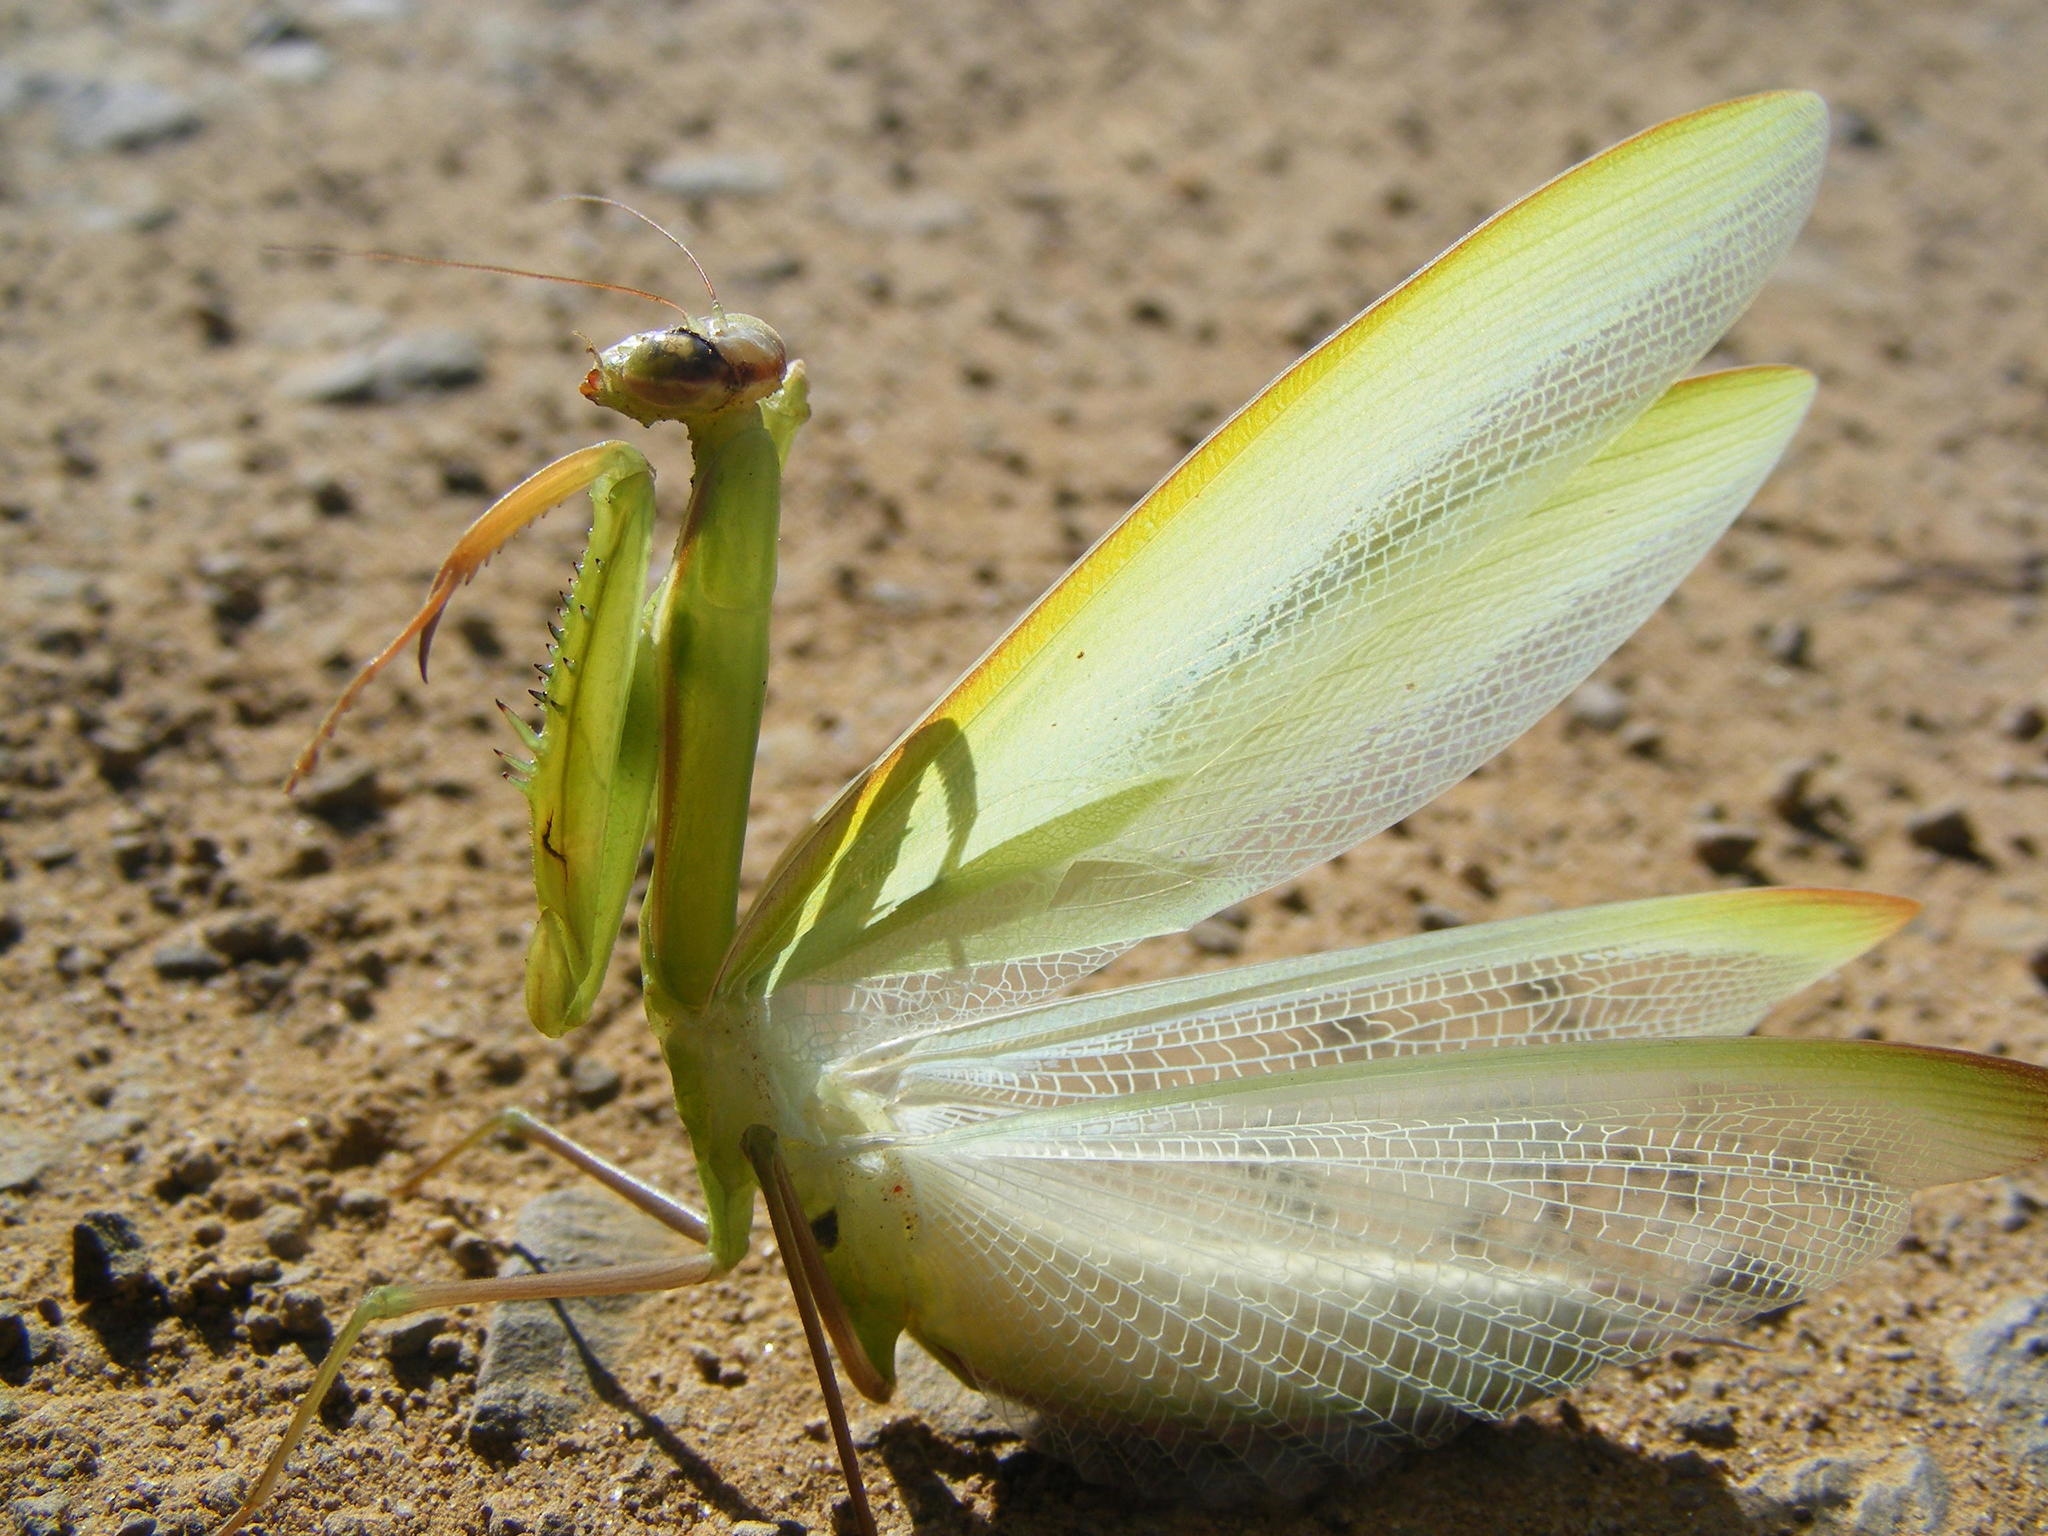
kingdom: Animalia
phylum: Arthropoda
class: Insecta
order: Mantodea
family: Mantidae
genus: Mantis
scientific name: Mantis religiosa
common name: Praying mantis
